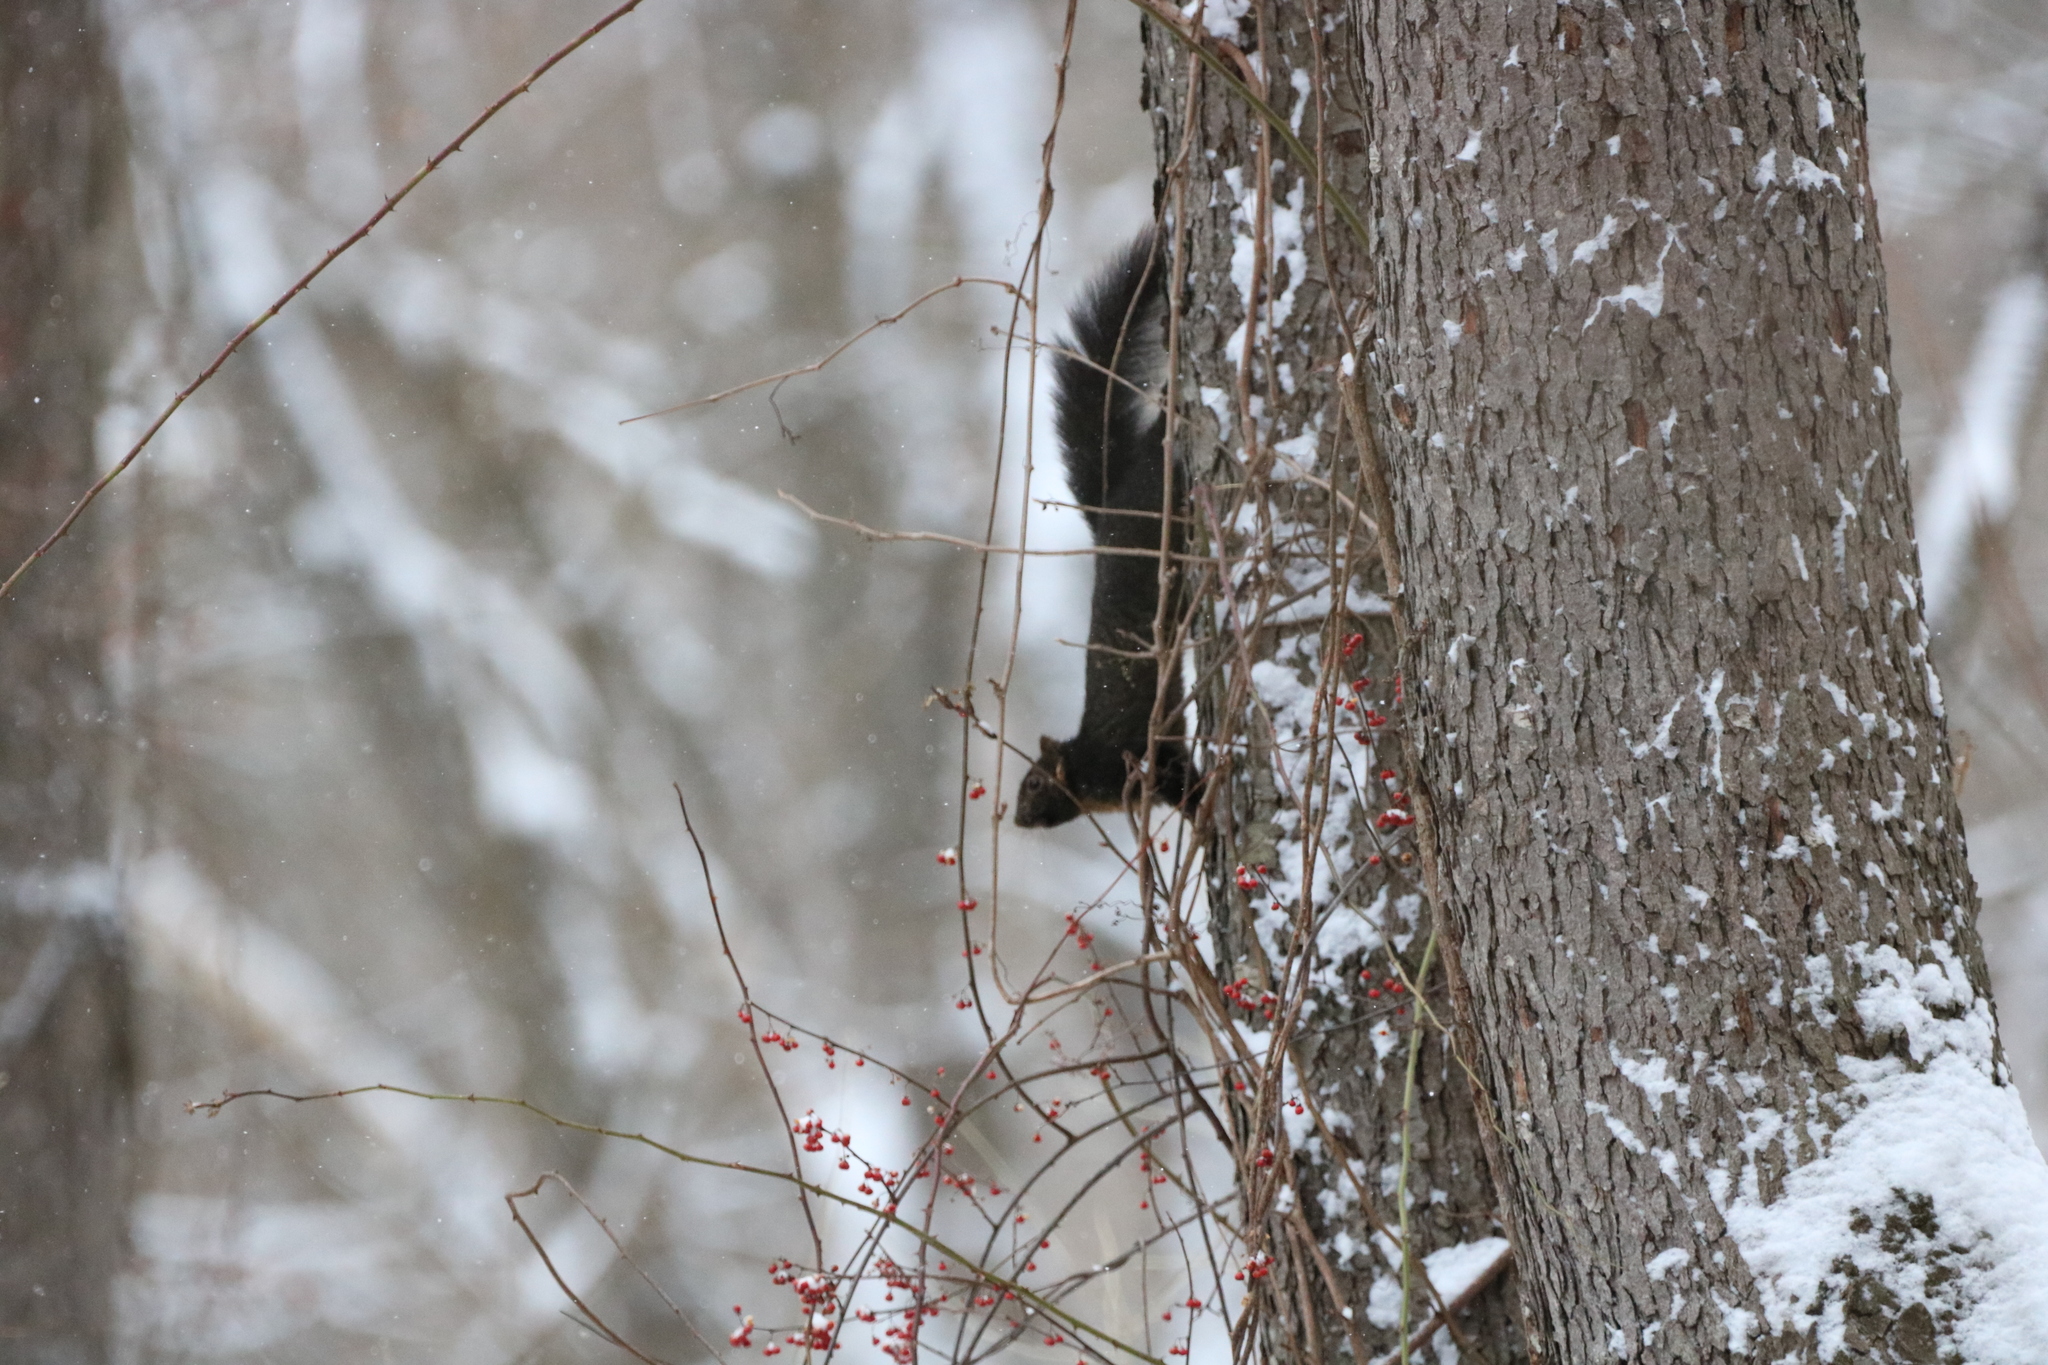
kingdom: Animalia
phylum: Chordata
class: Mammalia
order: Rodentia
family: Sciuridae
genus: Sciurus
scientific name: Sciurus carolinensis
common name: Eastern gray squirrel
